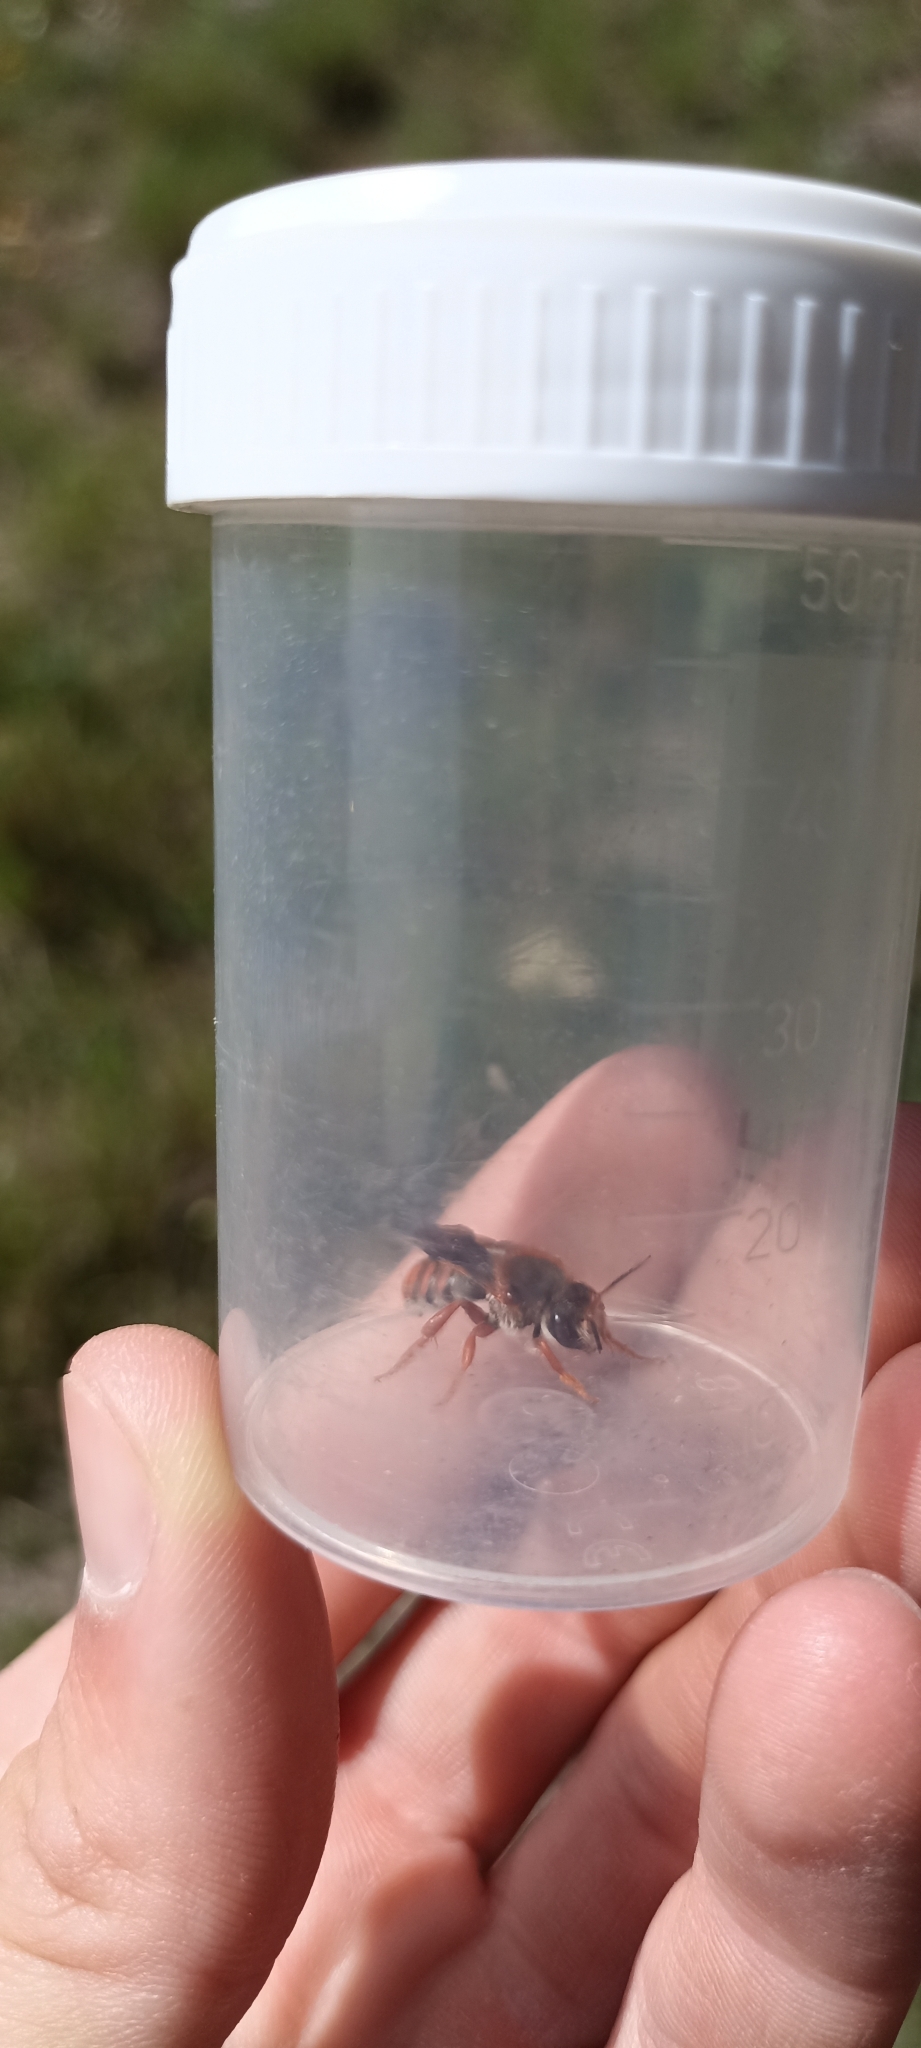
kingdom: Animalia
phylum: Arthropoda
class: Insecta
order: Hymenoptera
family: Megachilidae
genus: Rhodanthidium
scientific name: Rhodanthidium sticticum
